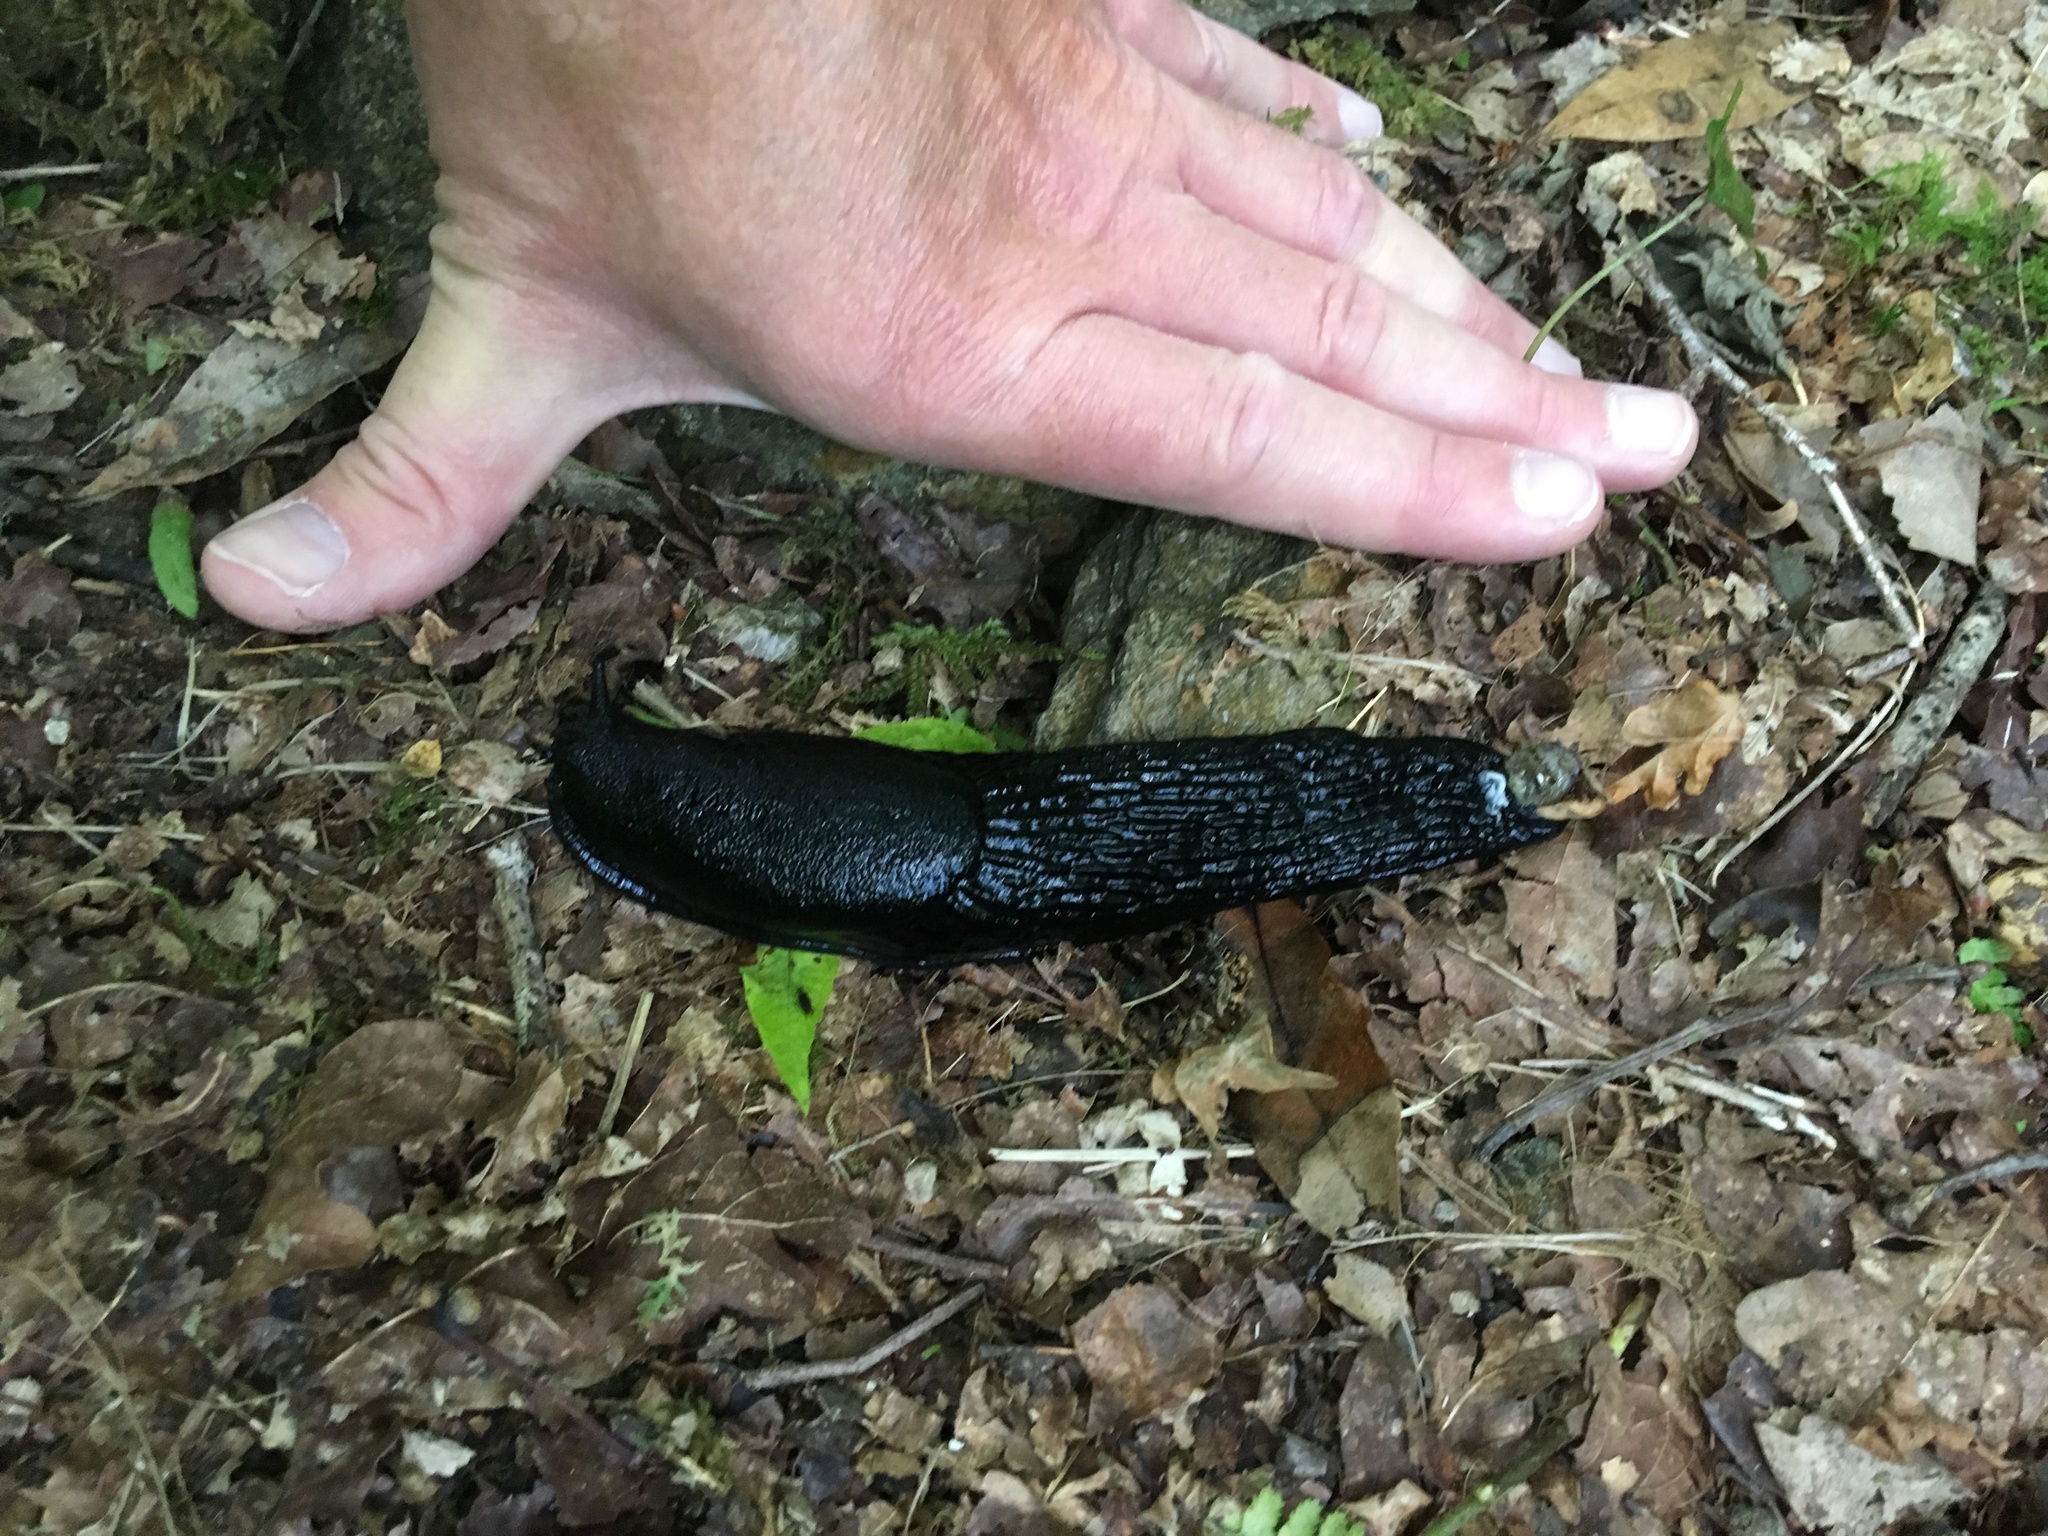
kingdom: Animalia
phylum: Mollusca
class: Gastropoda
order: Stylommatophora
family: Arionidae
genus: Arion
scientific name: Arion ater
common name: Black arion
